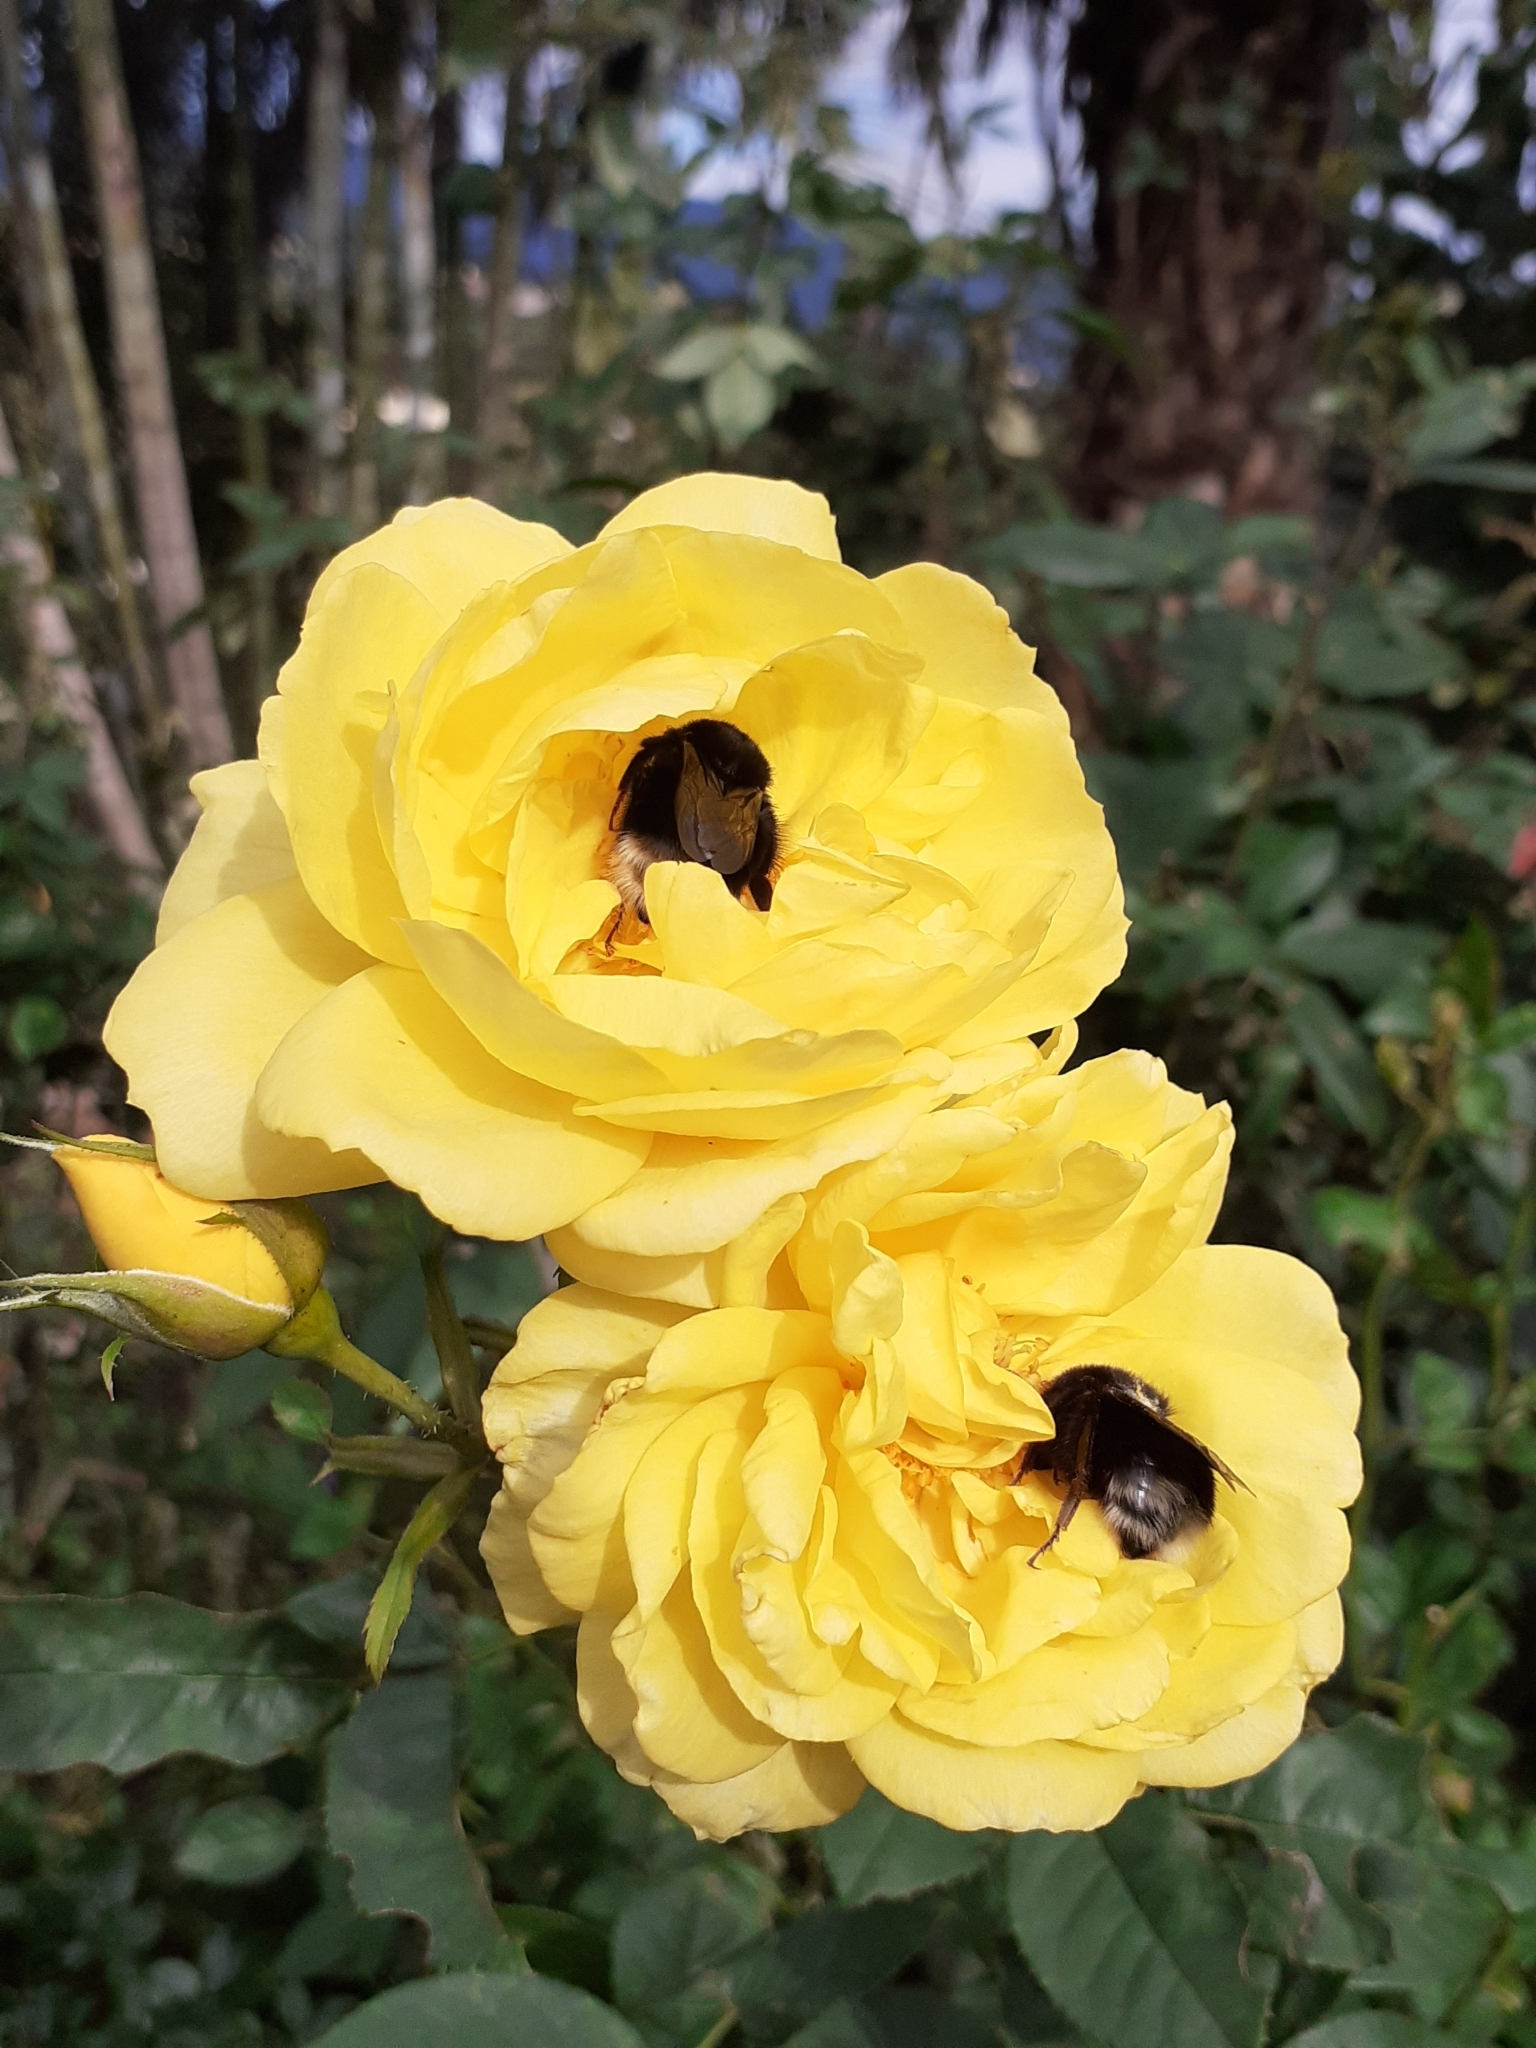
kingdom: Animalia
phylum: Arthropoda
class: Insecta
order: Hymenoptera
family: Apidae
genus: Bombus
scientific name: Bombus terrestris
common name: Buff-tailed bumblebee
